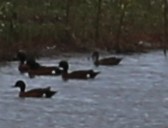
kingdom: Animalia
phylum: Chordata
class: Aves
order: Anseriformes
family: Anatidae
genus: Anas
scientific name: Anas castanea
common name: Chestnut teal
